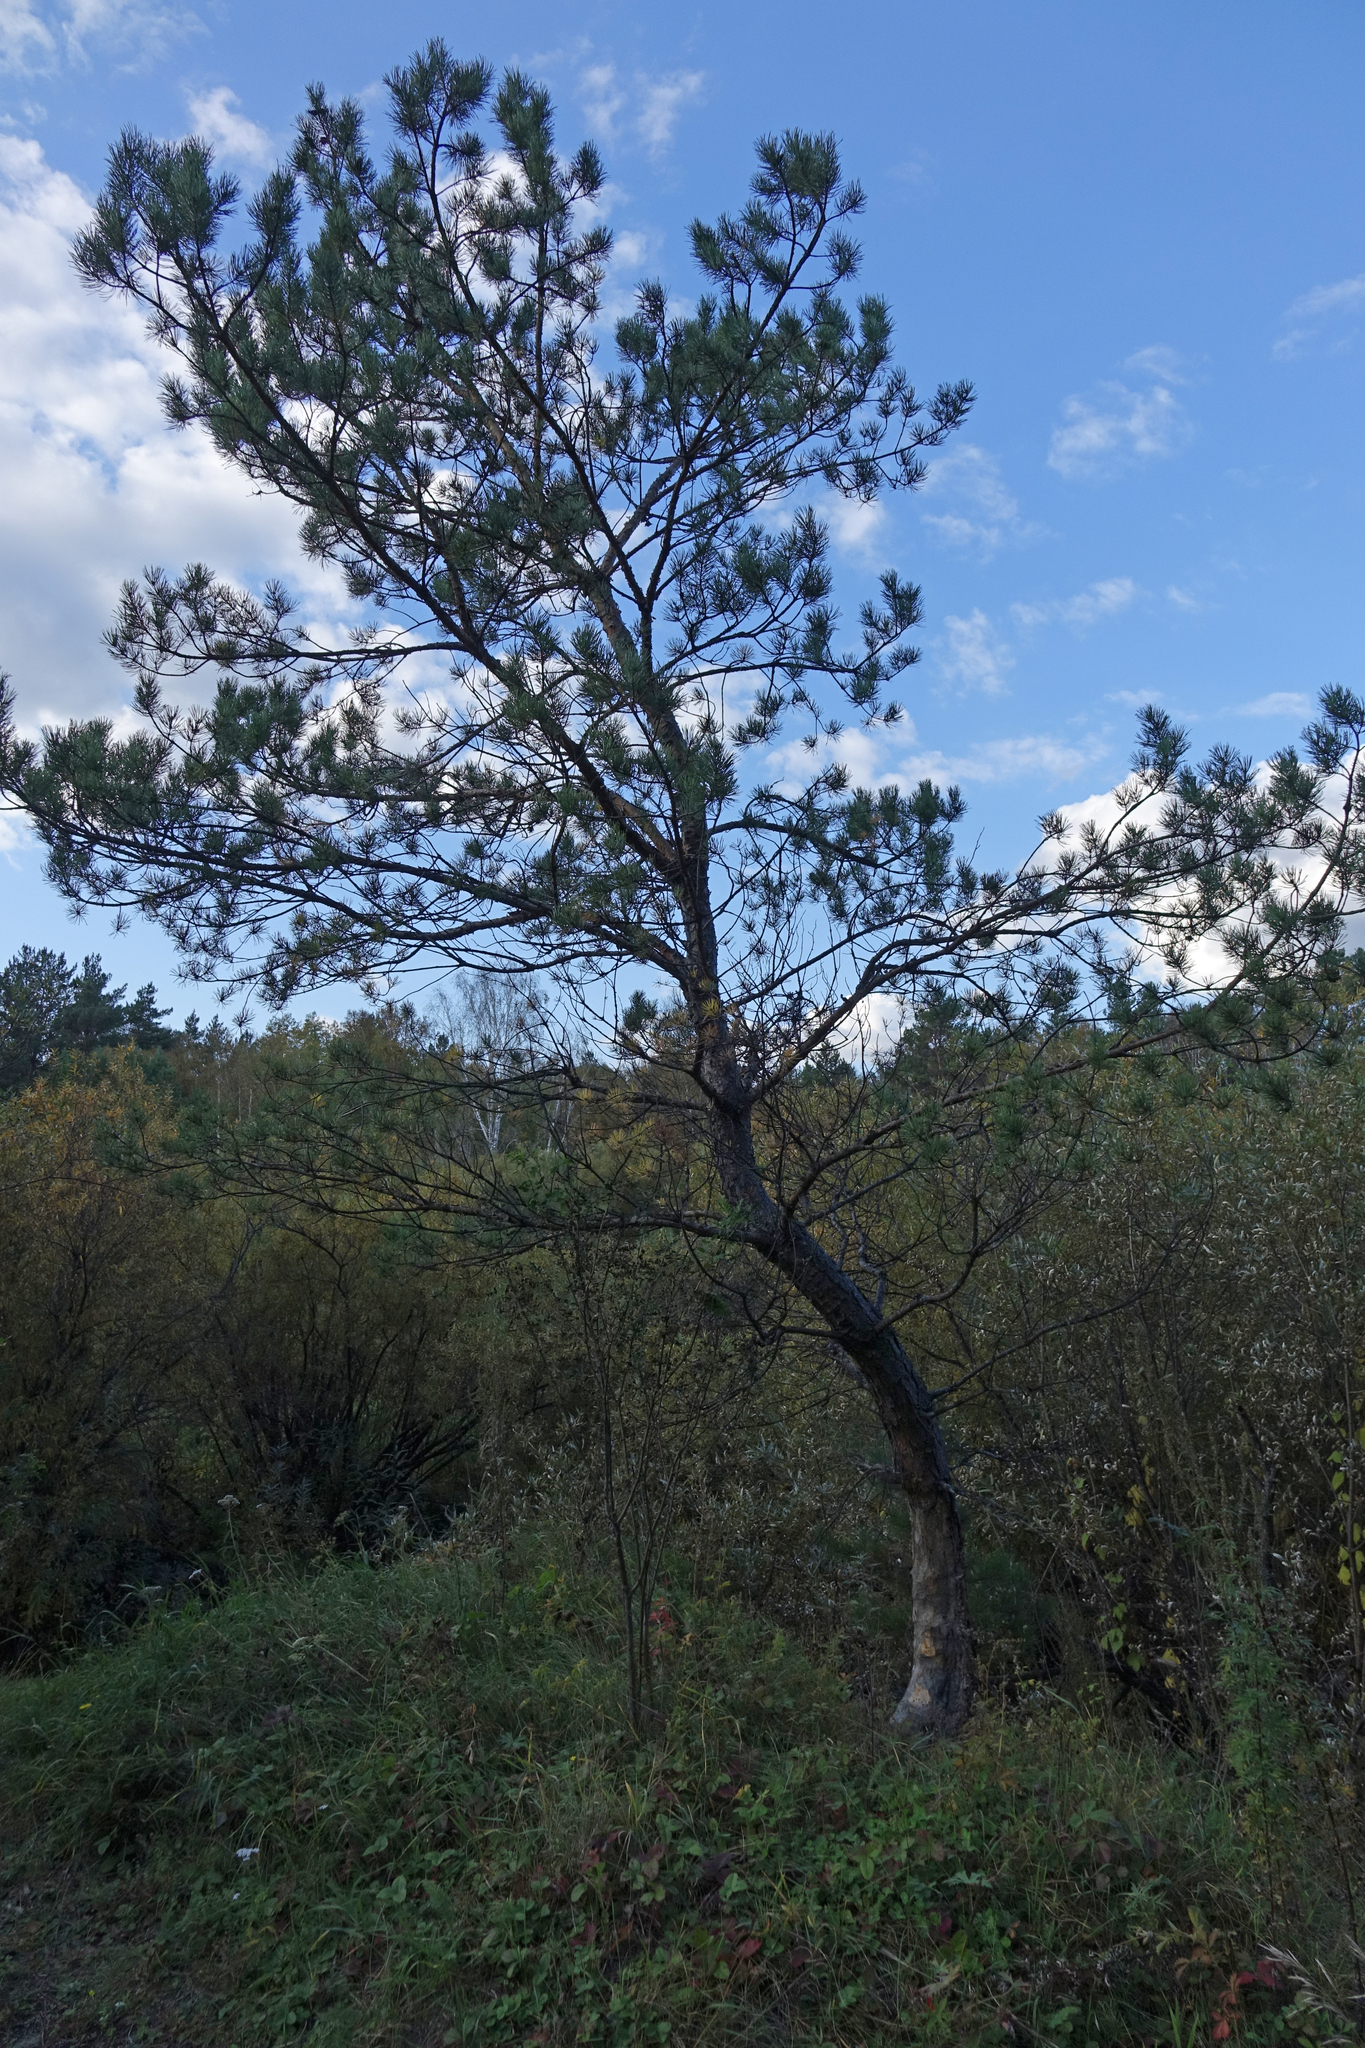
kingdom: Plantae
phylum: Tracheophyta
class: Pinopsida
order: Pinales
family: Pinaceae
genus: Pinus
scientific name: Pinus sylvestris
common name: Scots pine
